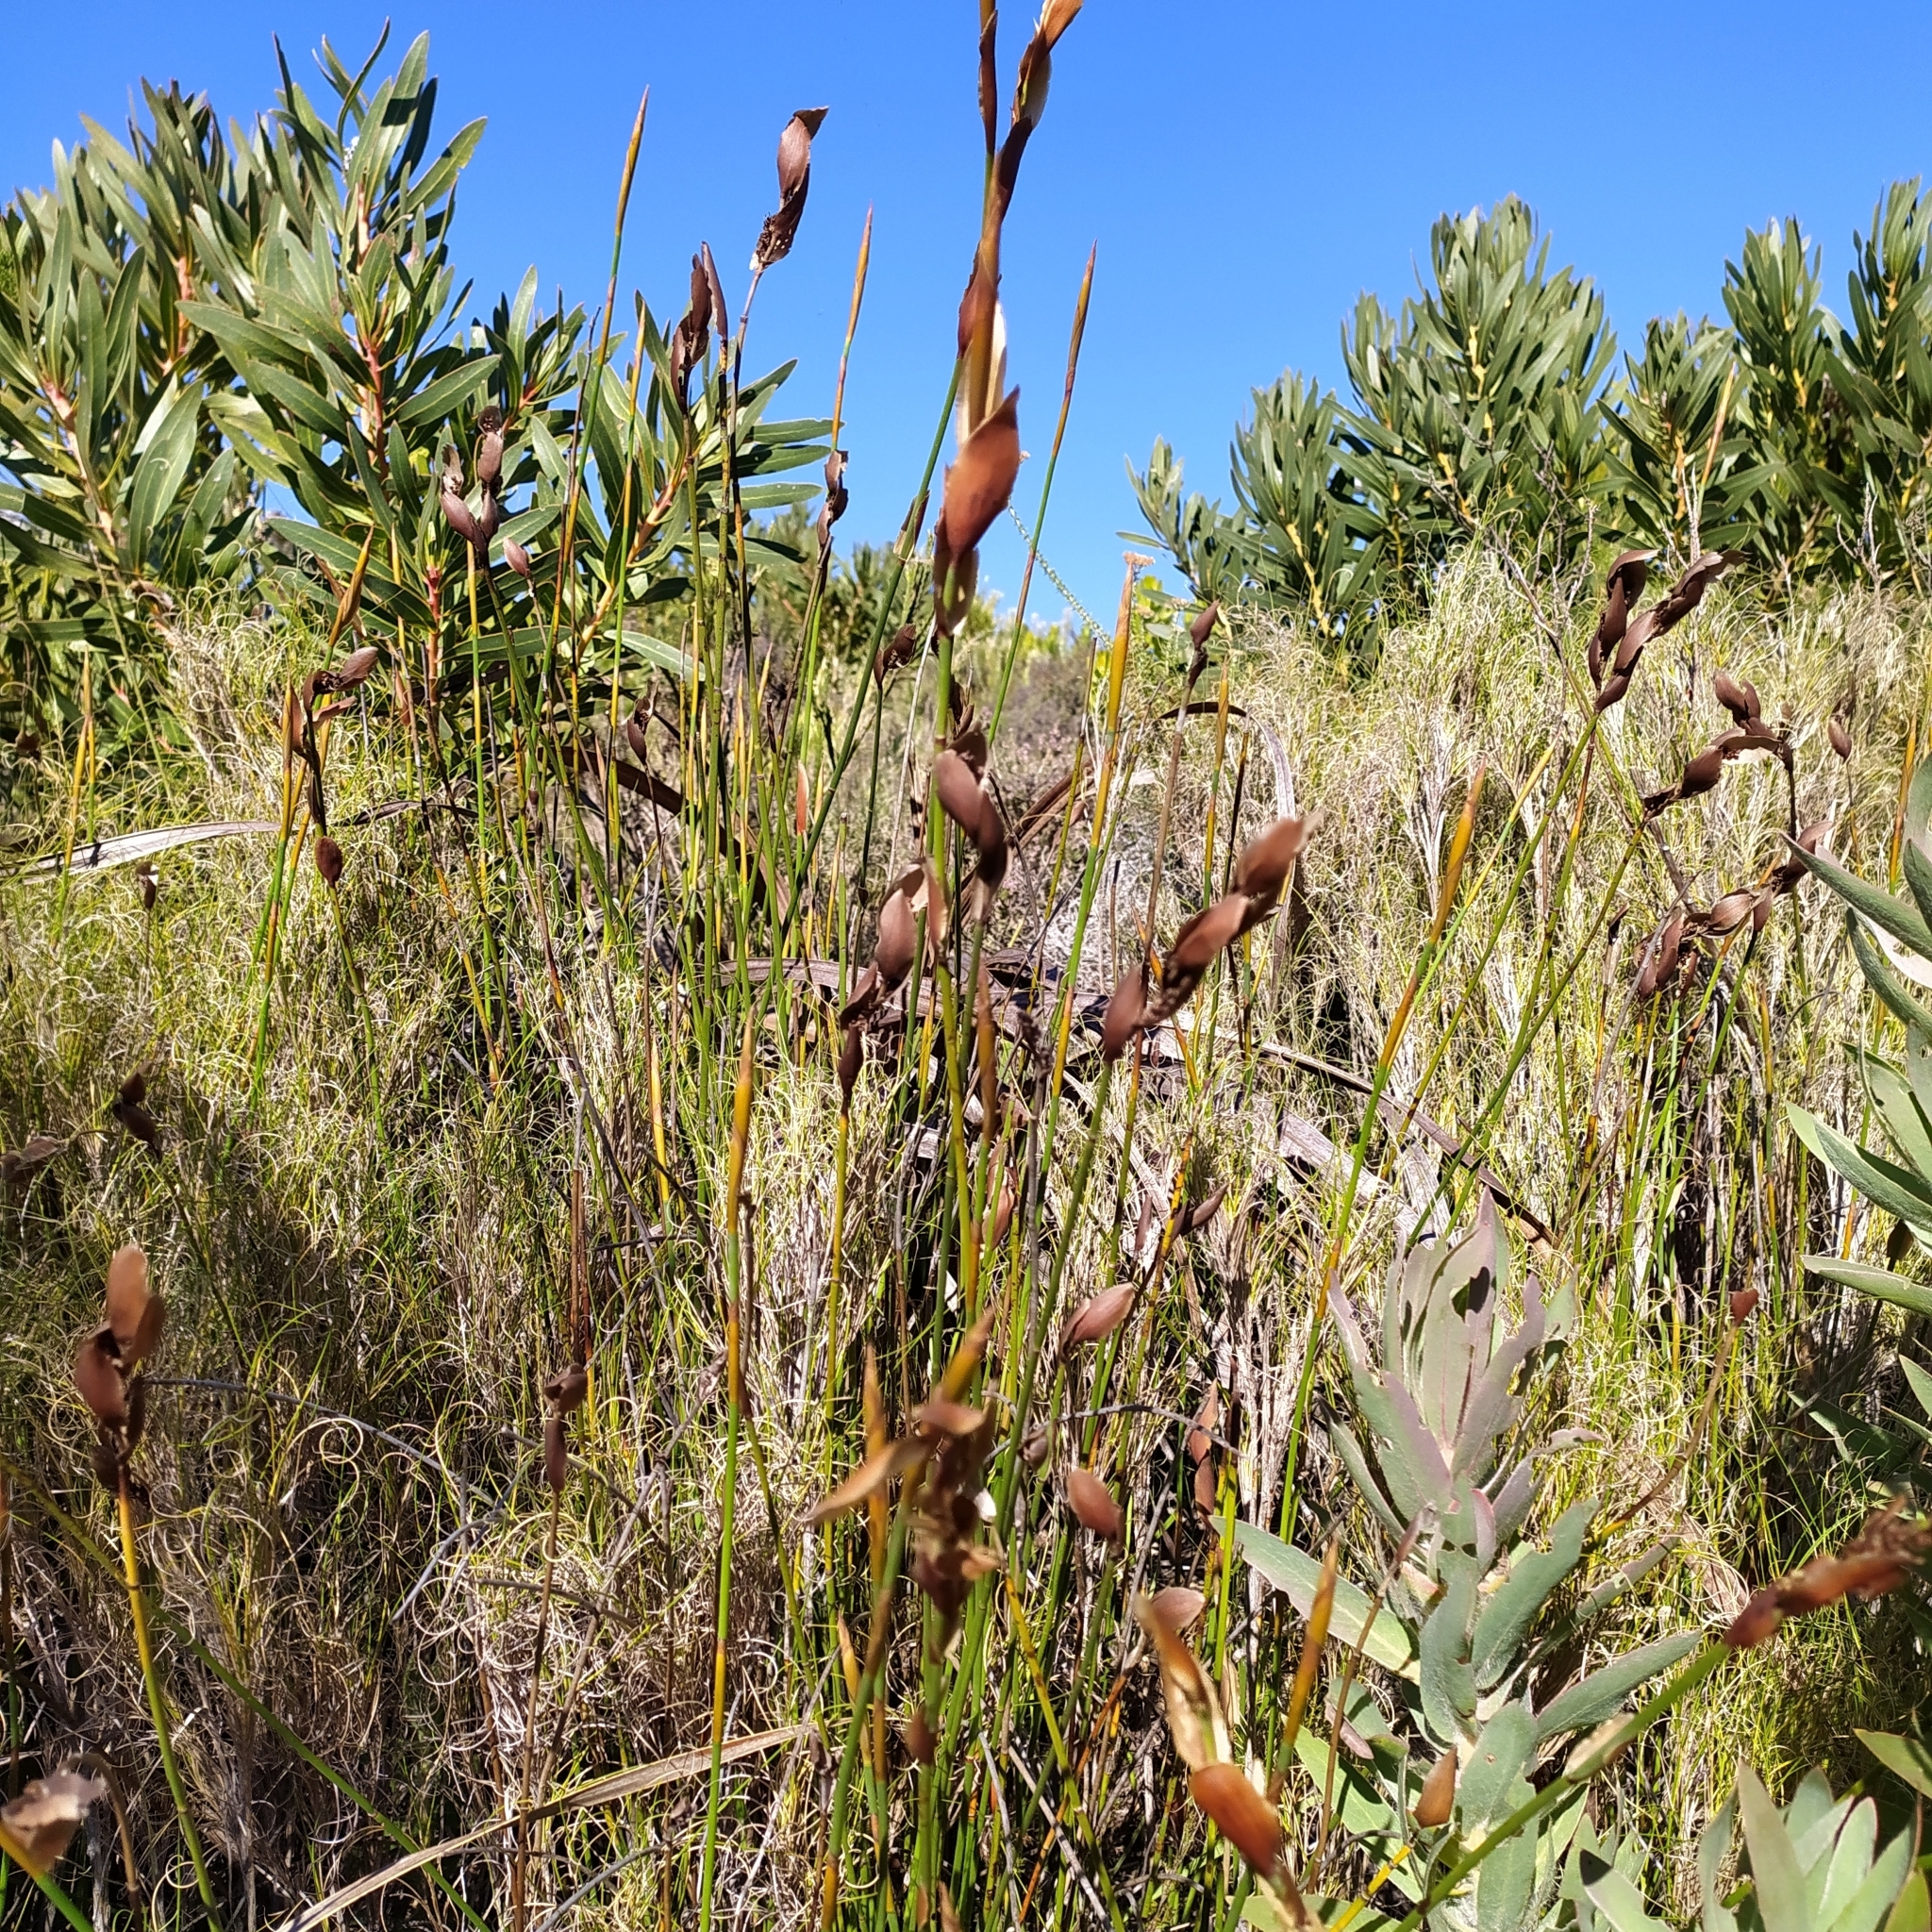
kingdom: Plantae
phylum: Tracheophyta
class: Liliopsida
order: Poales
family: Restionaceae
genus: Elegia
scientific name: Elegia juncea
